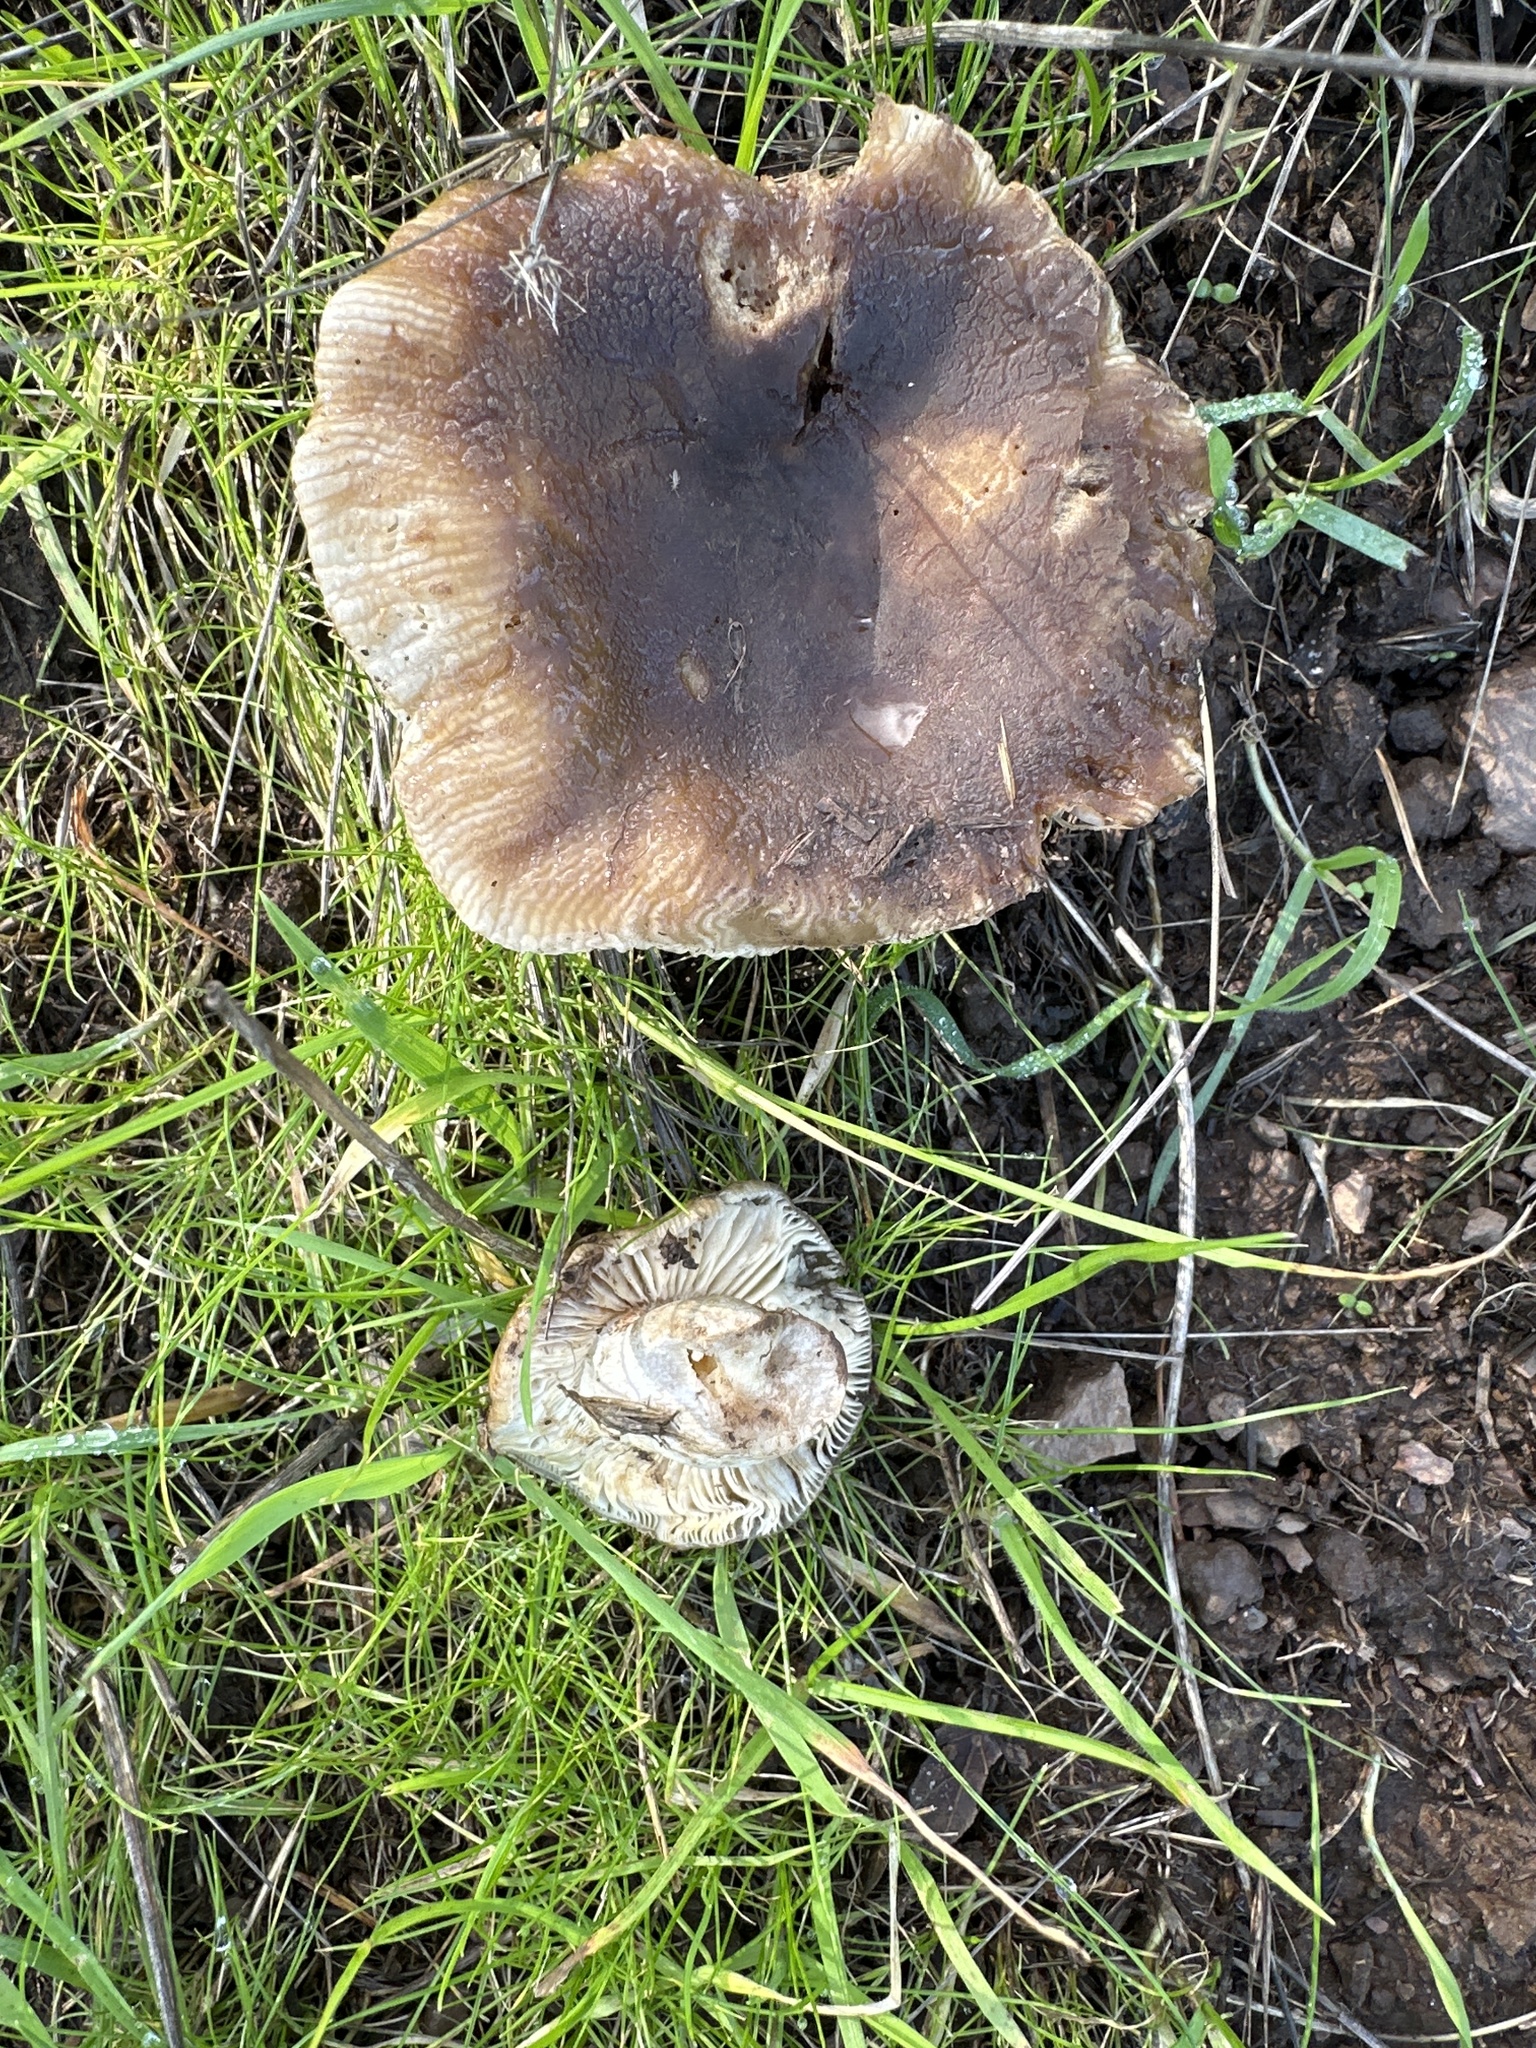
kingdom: Fungi
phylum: Basidiomycota
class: Agaricomycetes
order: Russulales
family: Russulaceae
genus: Russula
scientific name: Russula cerolens
